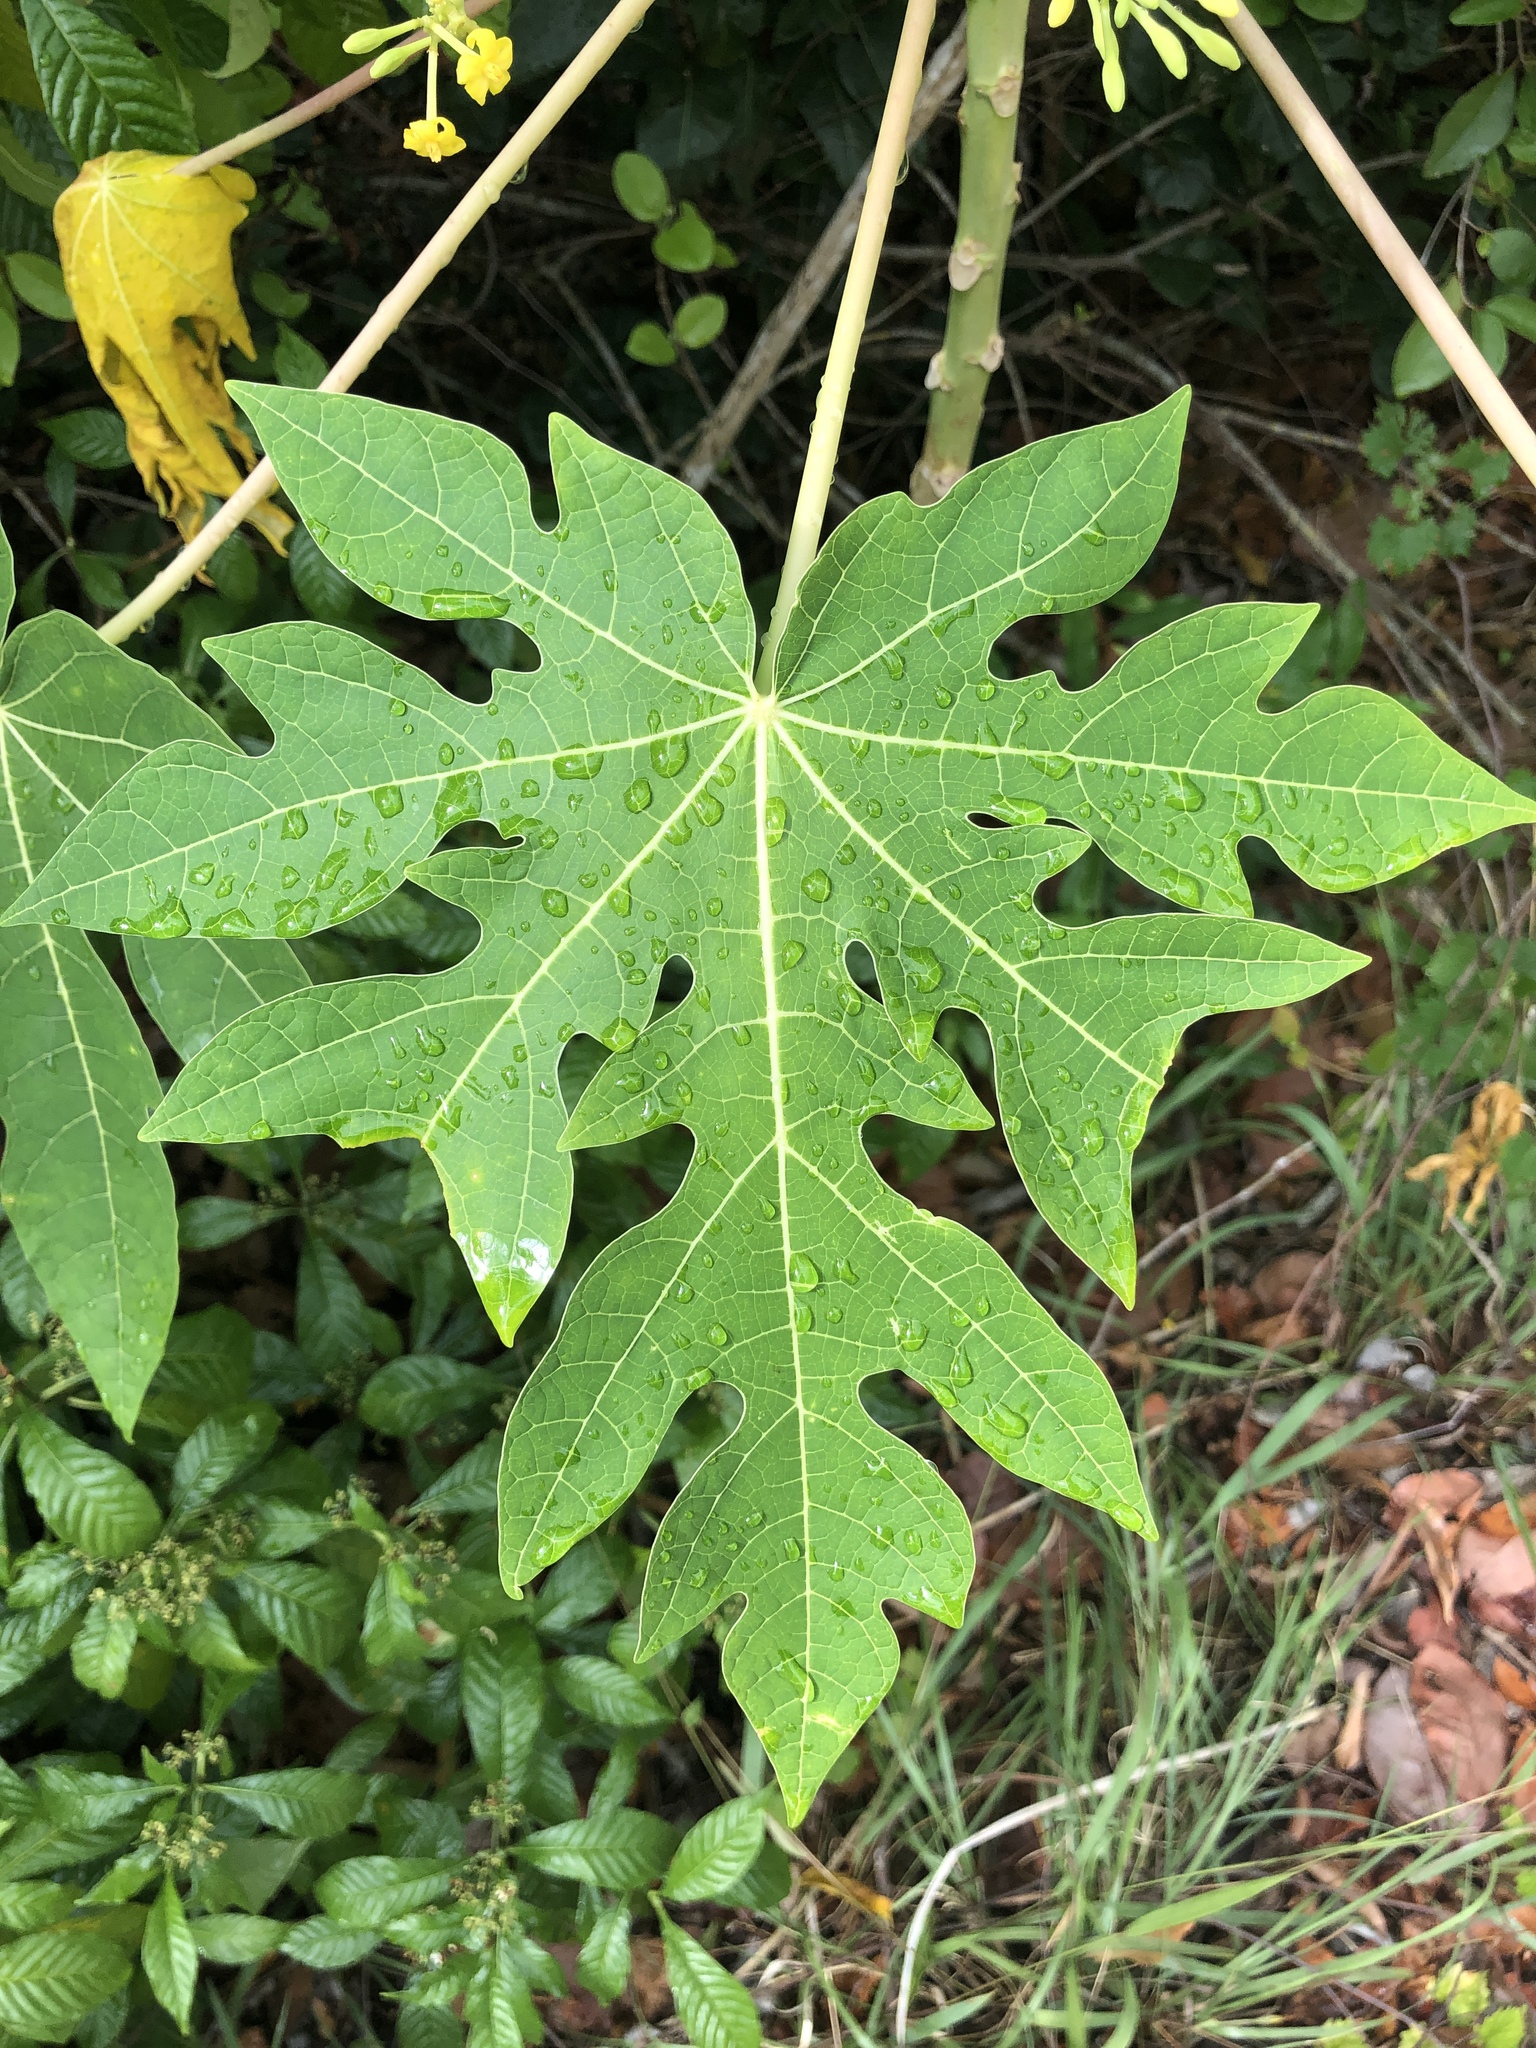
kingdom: Plantae
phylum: Tracheophyta
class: Magnoliopsida
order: Brassicales
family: Caricaceae
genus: Carica
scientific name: Carica papaya
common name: Papaya
